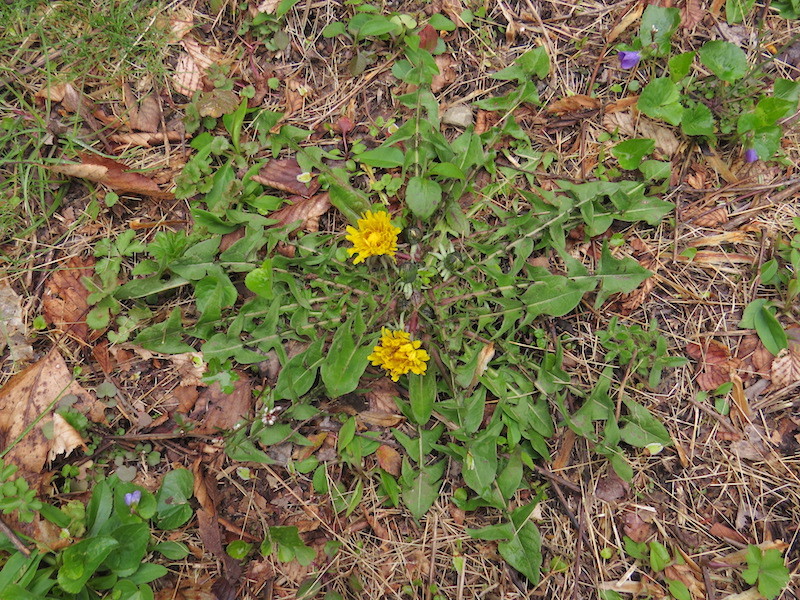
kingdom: Plantae
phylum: Tracheophyta
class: Magnoliopsida
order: Asterales
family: Asteraceae
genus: Taraxacum
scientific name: Taraxacum officinale
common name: Common dandelion
